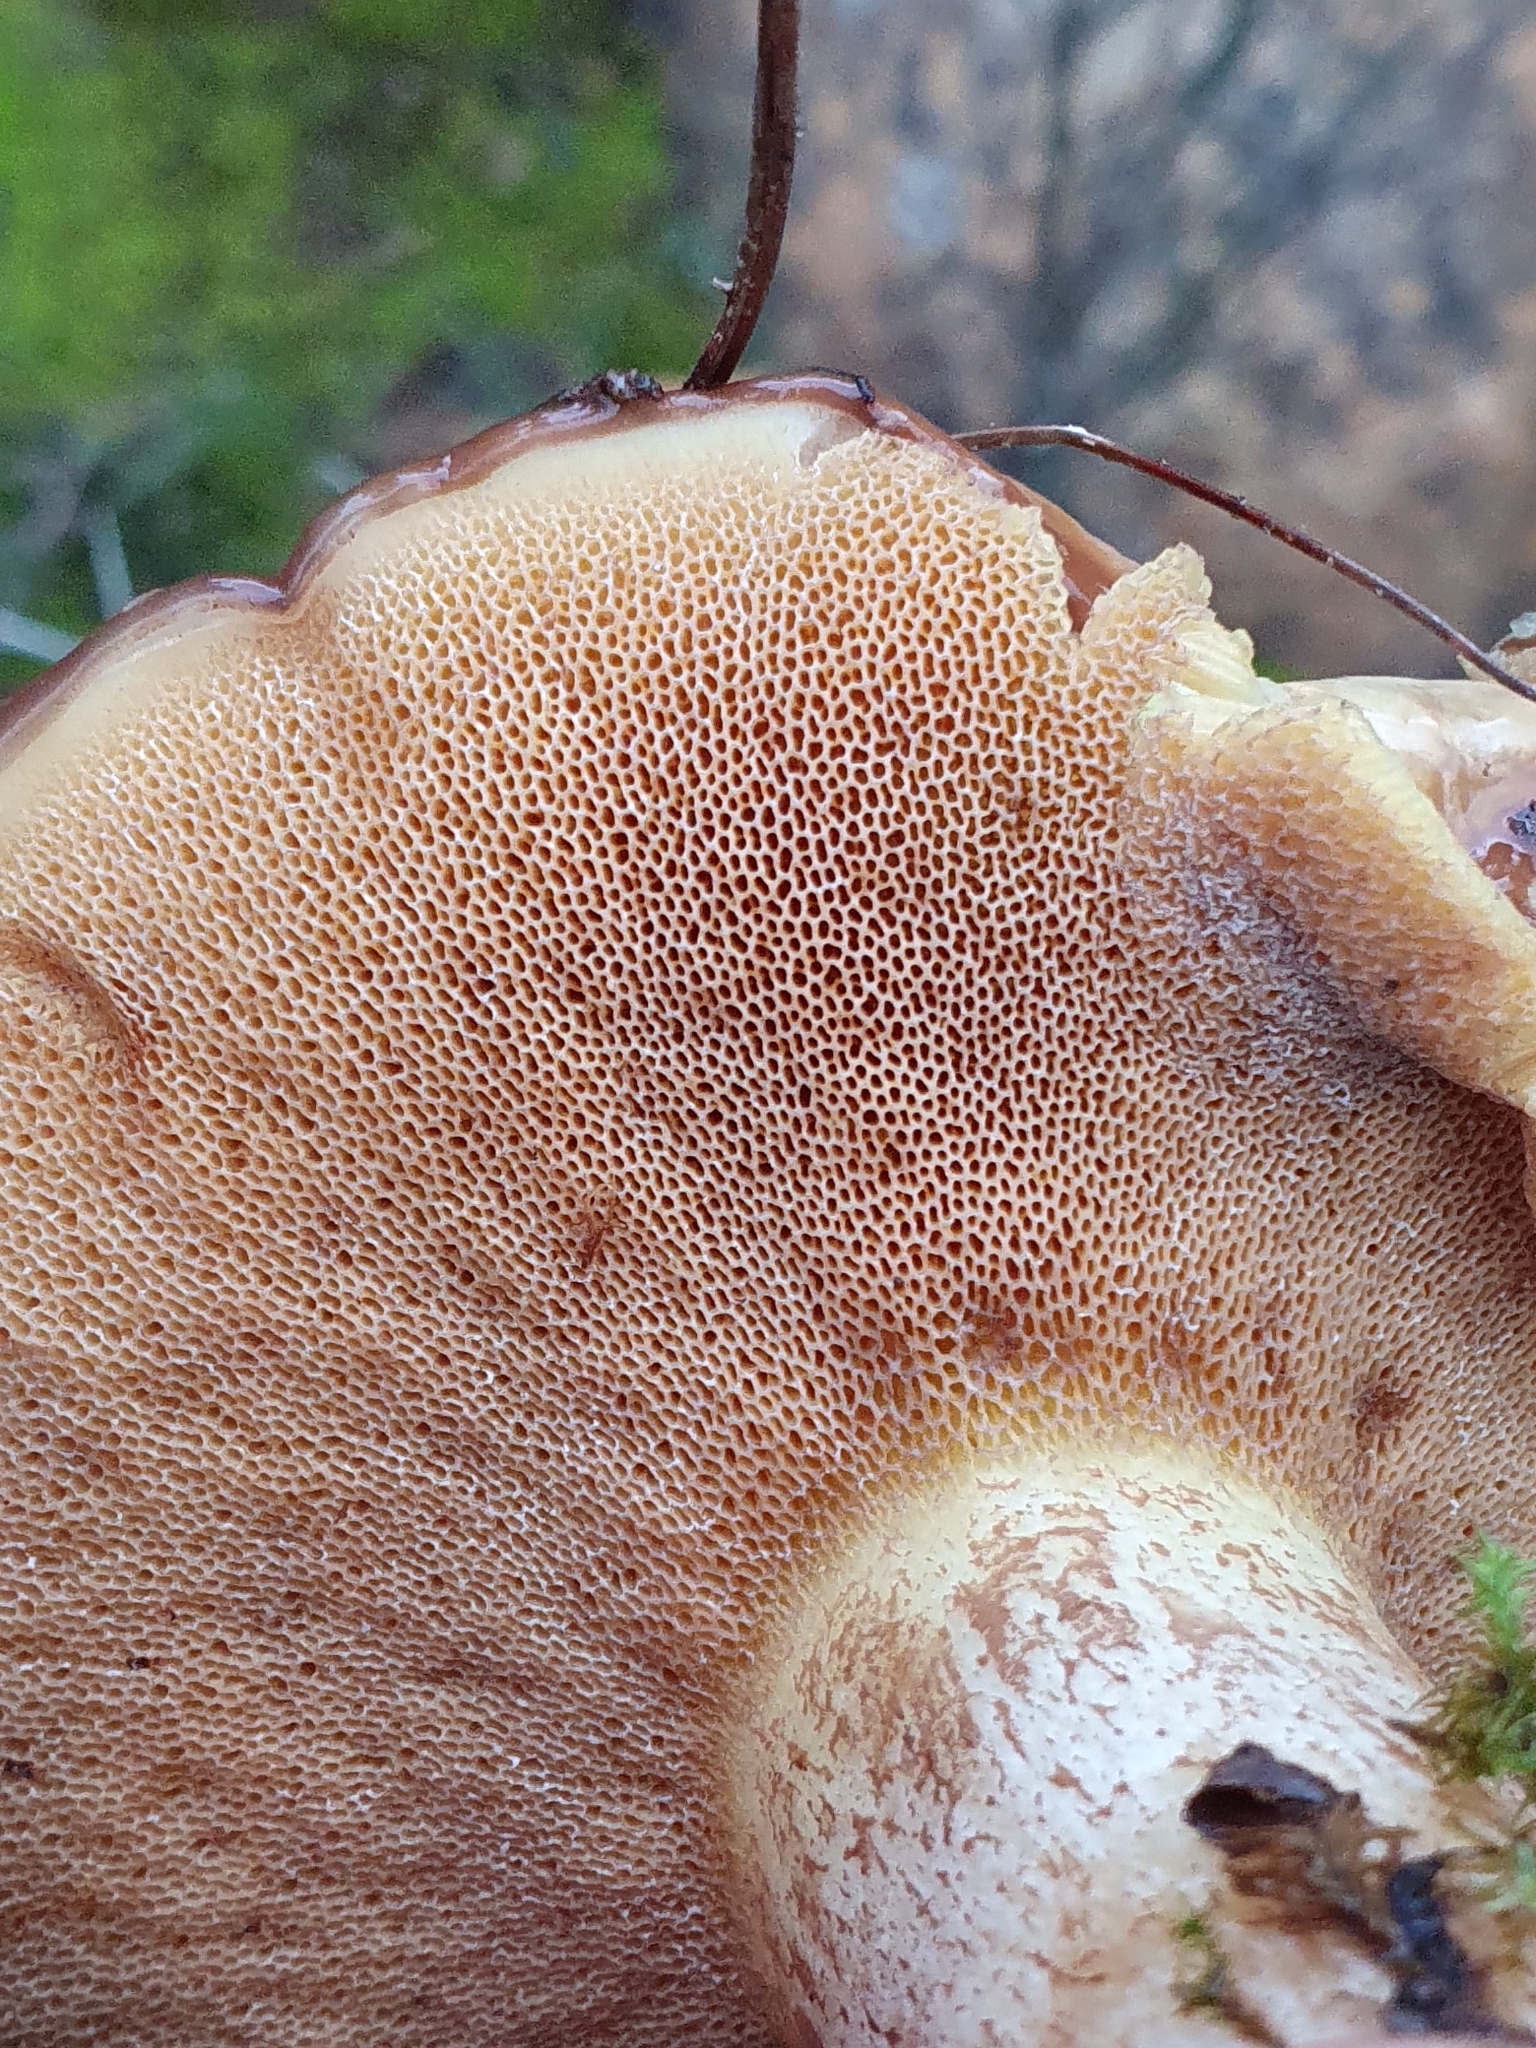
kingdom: Fungi
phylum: Basidiomycota
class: Agaricomycetes
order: Boletales
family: Suillaceae
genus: Suillus
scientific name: Suillus bellinii
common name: Champagne bolete
